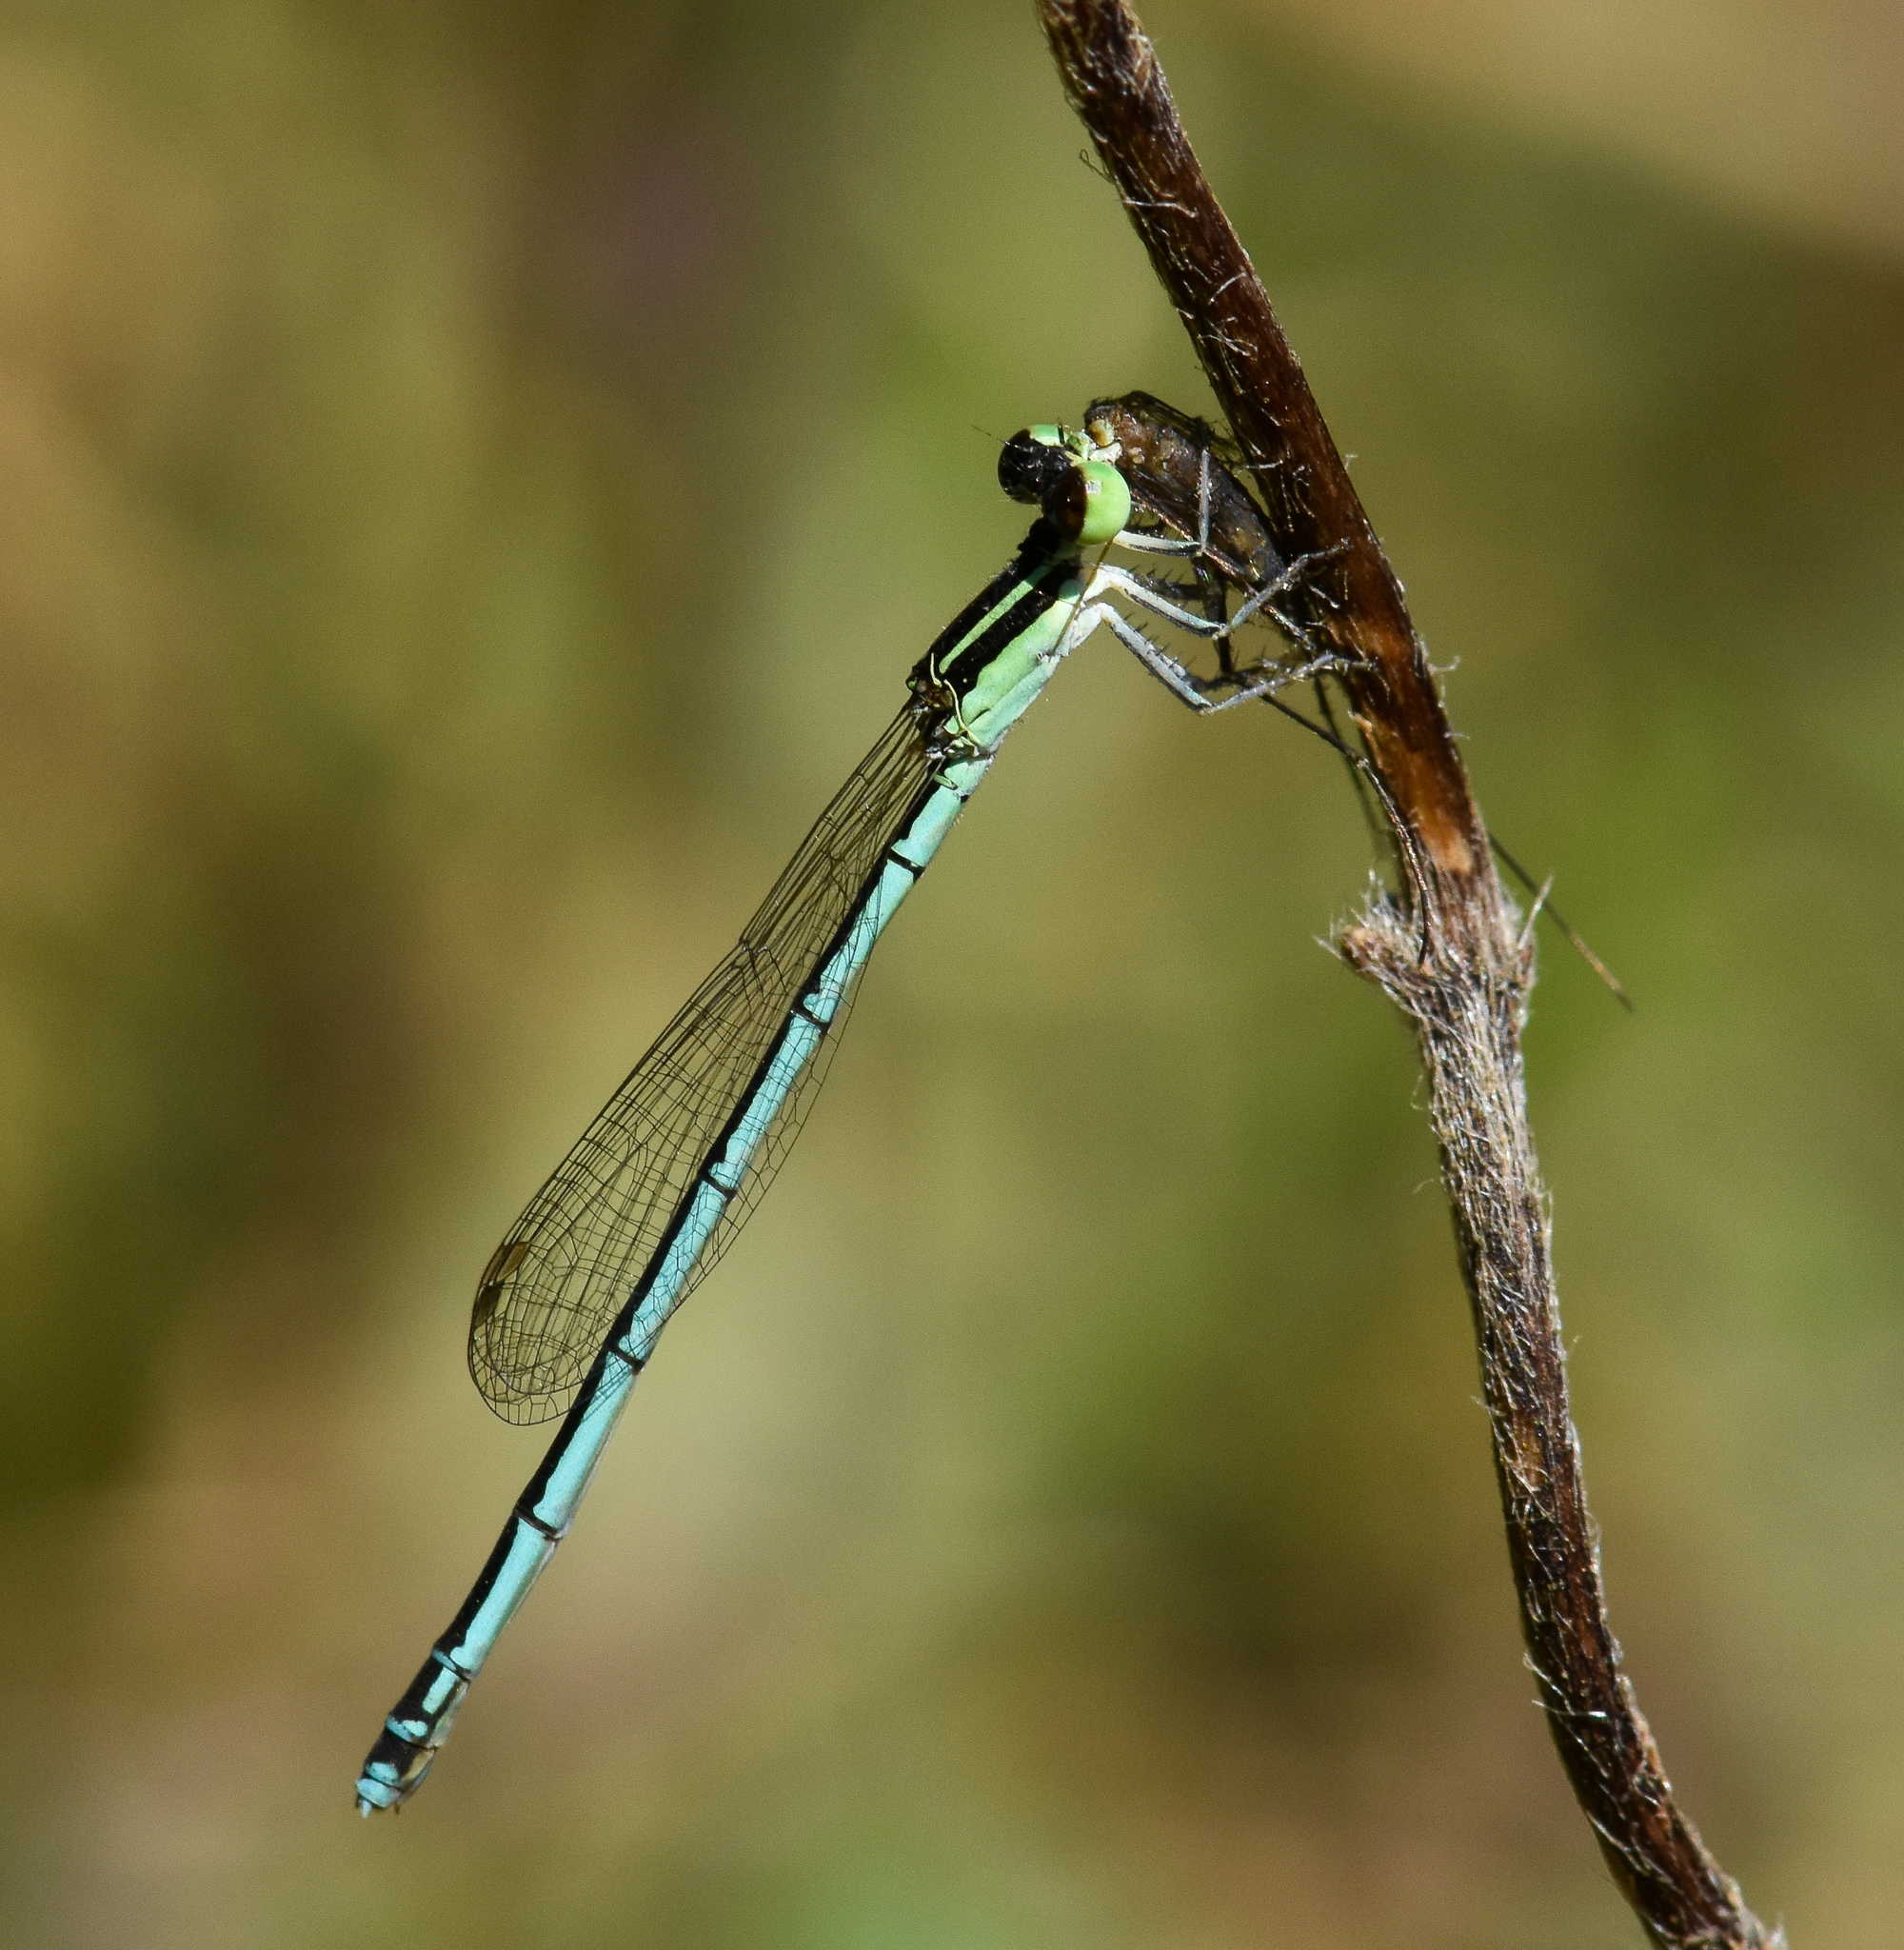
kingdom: Animalia
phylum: Arthropoda
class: Insecta
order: Odonata
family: Coenagrionidae
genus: Agriocnemis
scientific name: Agriocnemis lacteola
